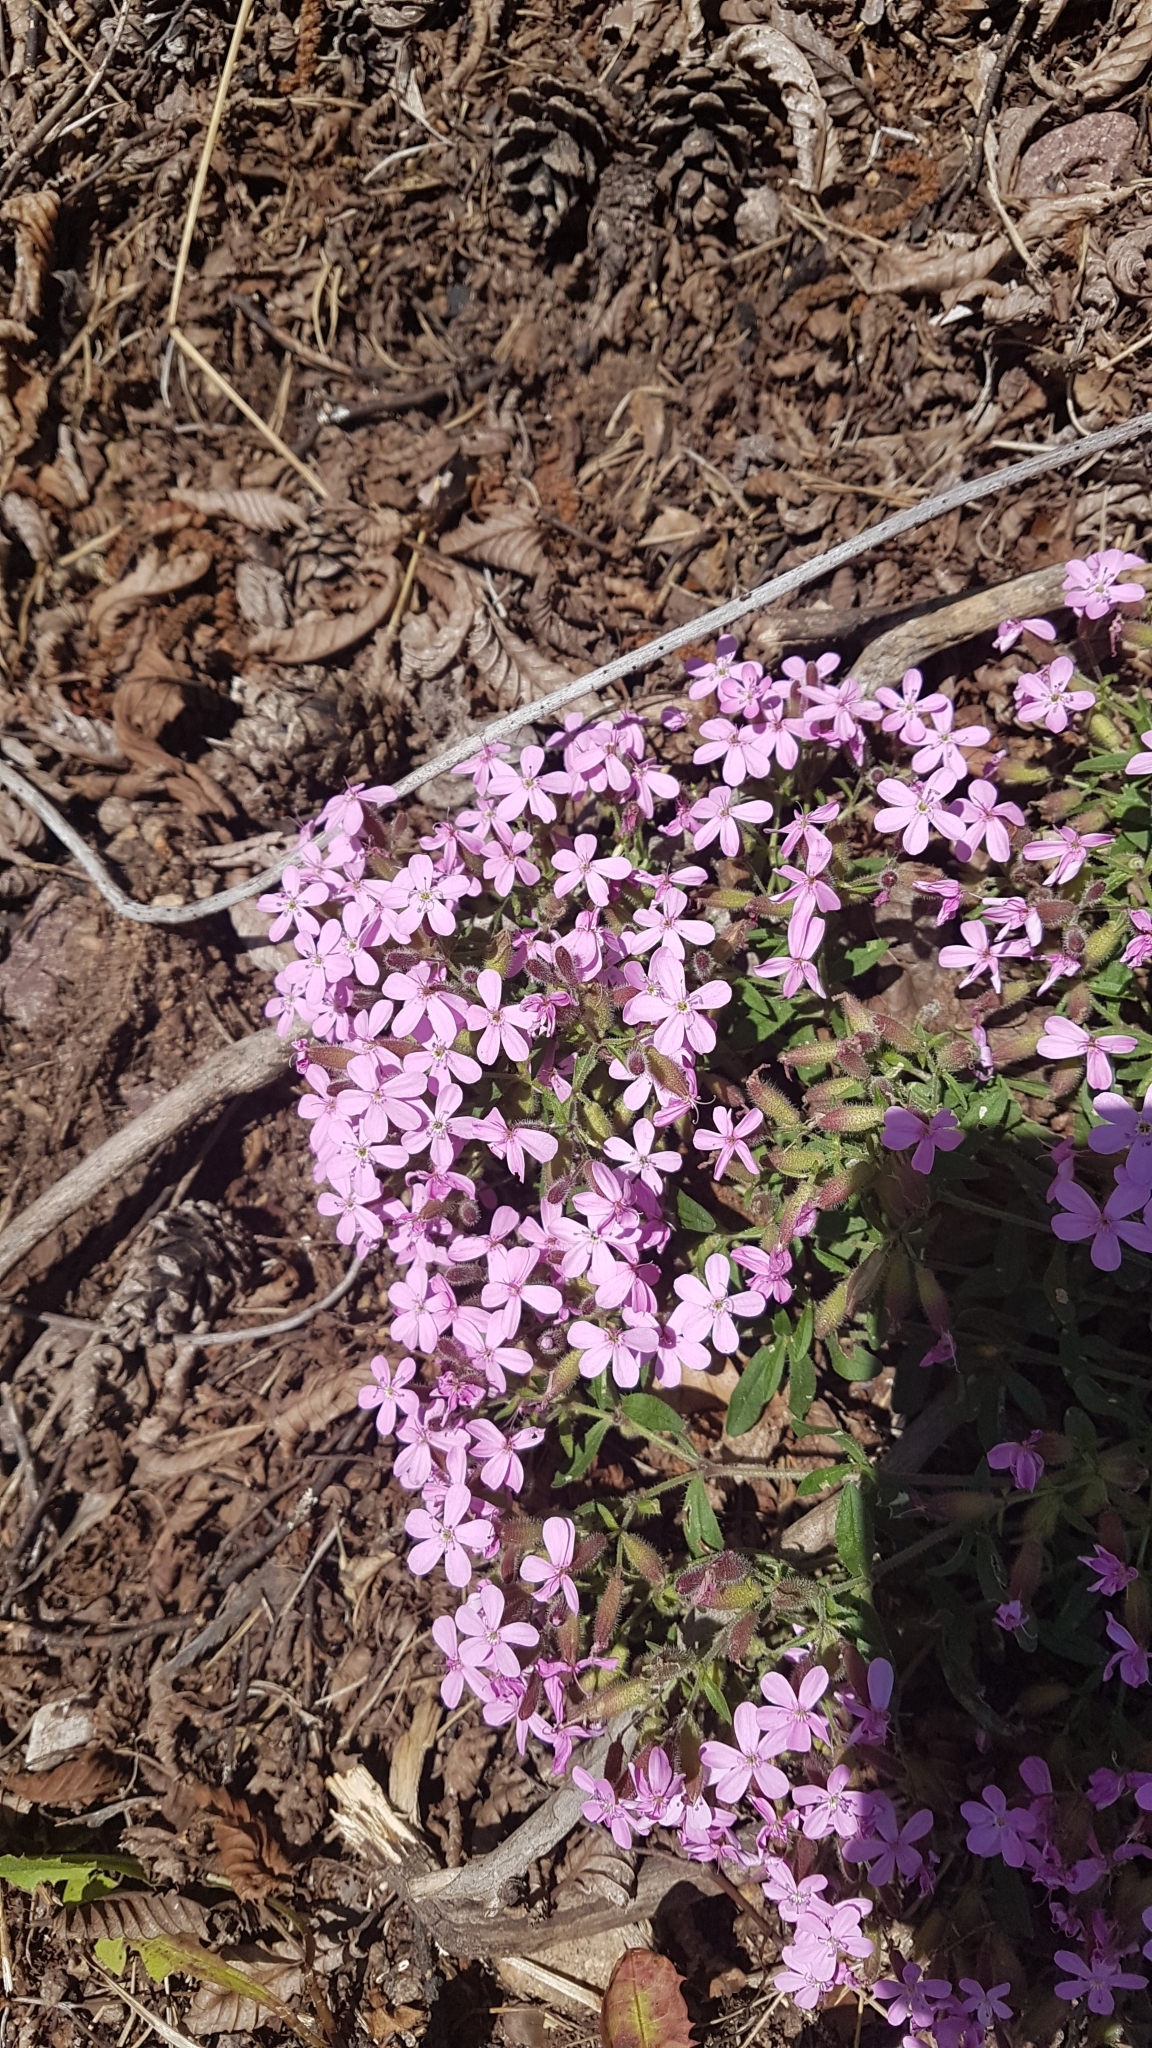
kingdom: Plantae
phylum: Tracheophyta
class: Magnoliopsida
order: Caryophyllales
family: Caryophyllaceae
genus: Saponaria
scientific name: Saponaria ocymoides
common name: Rock soapwort
